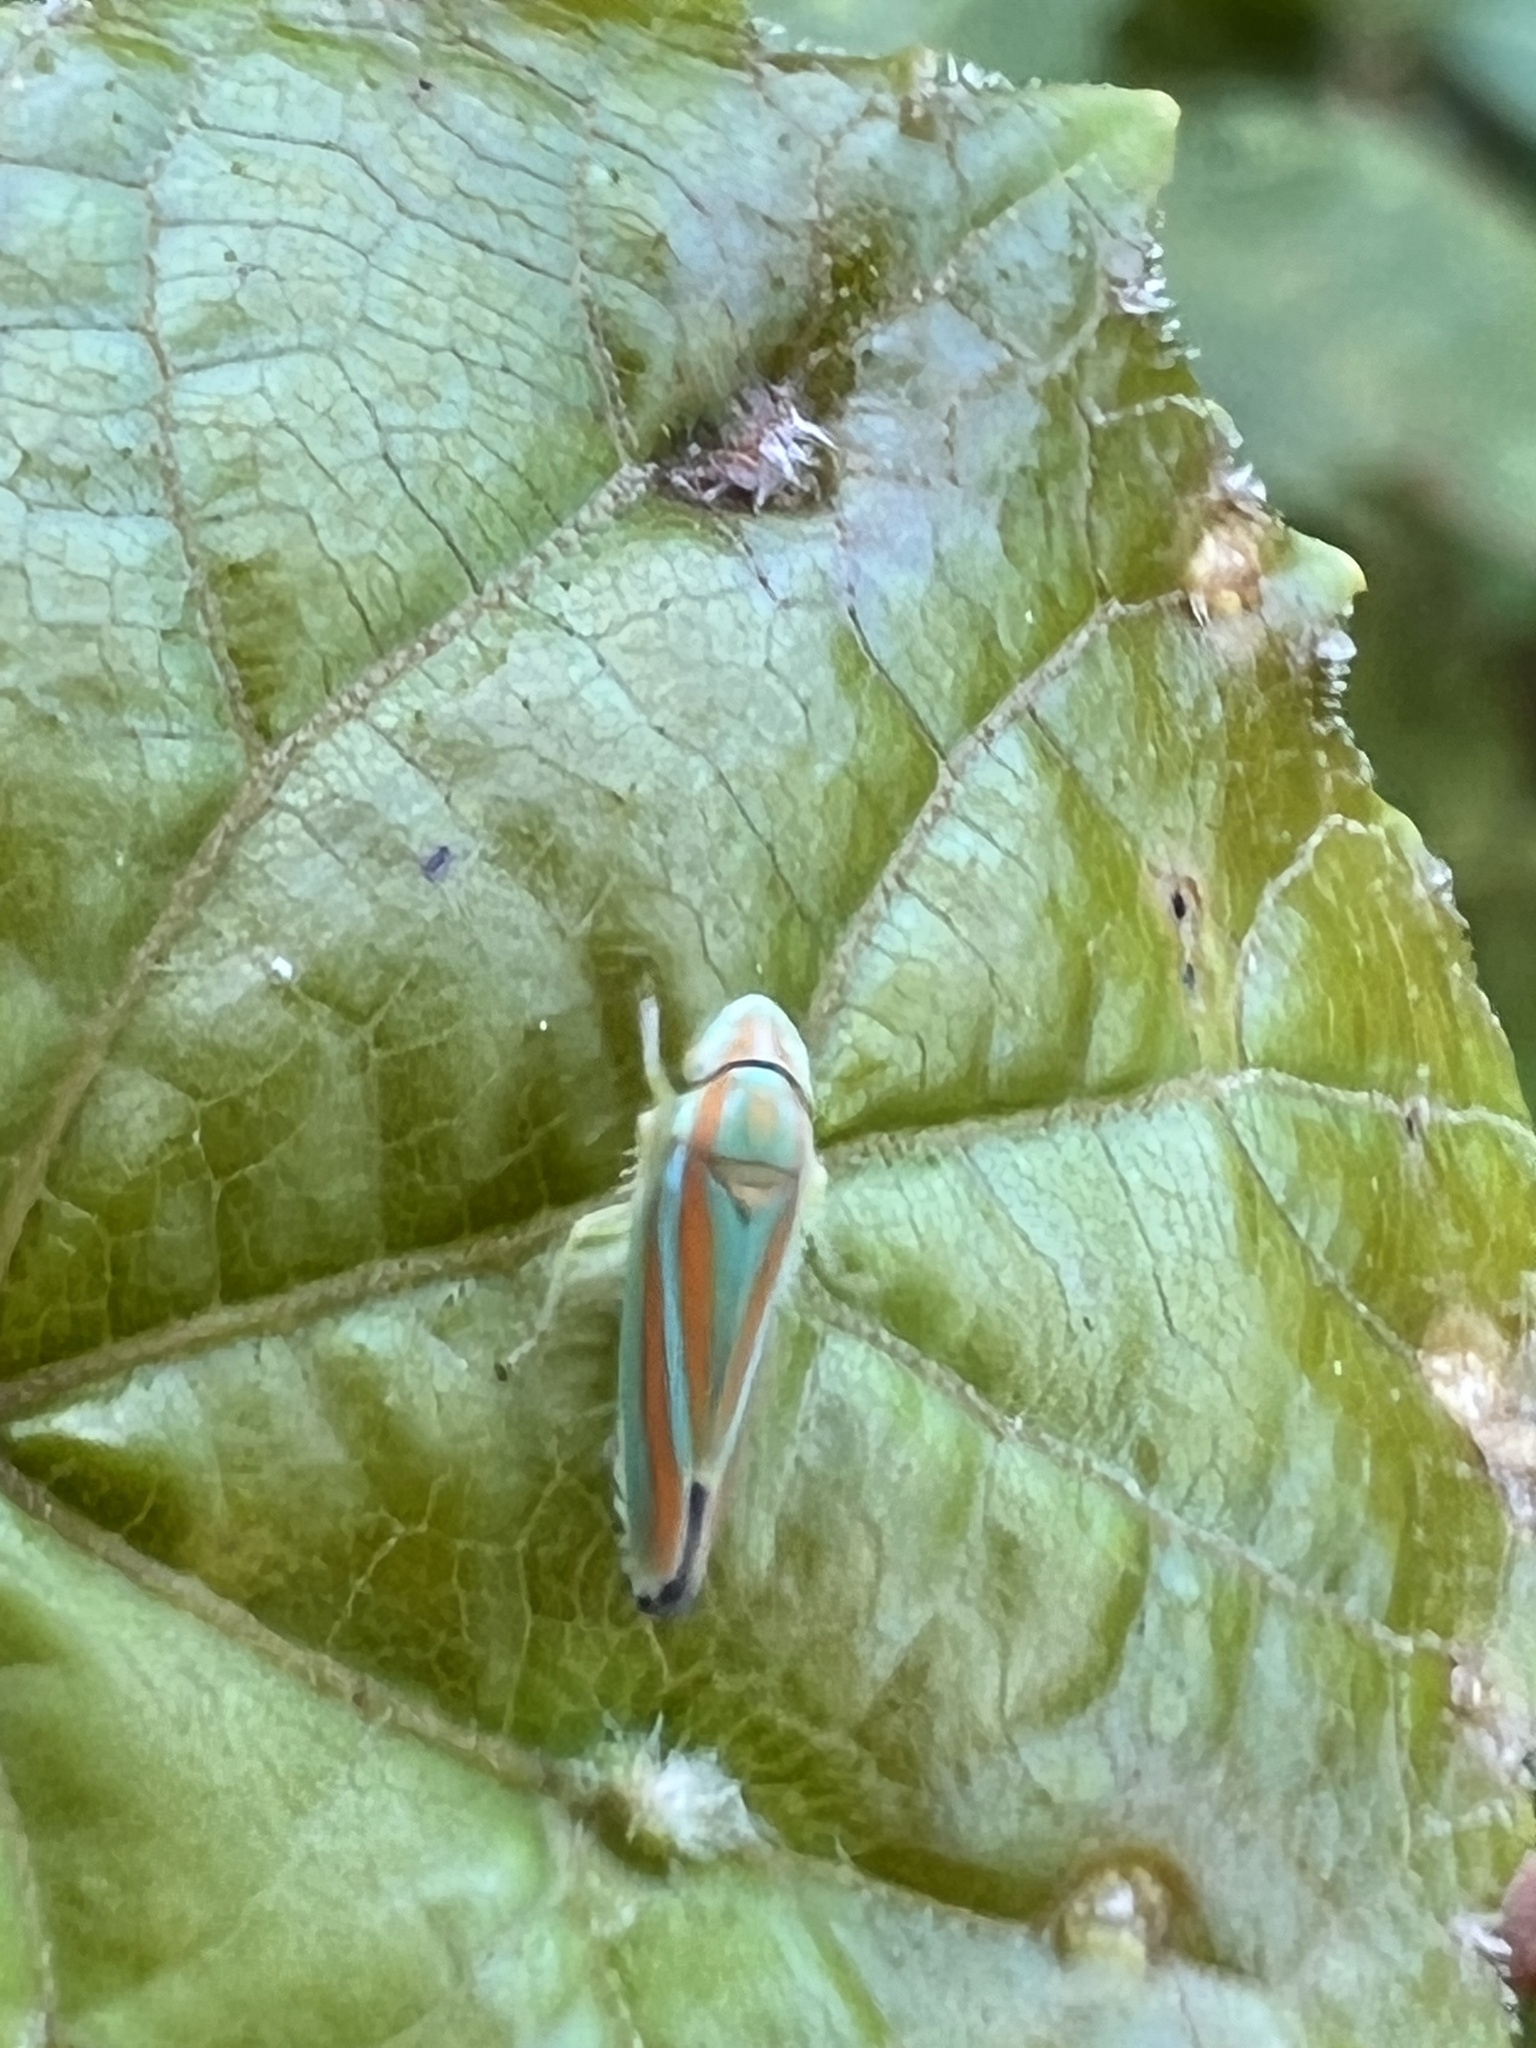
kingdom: Animalia
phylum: Arthropoda
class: Insecta
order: Hemiptera
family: Cicadellidae
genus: Graphocephala
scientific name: Graphocephala versuta
